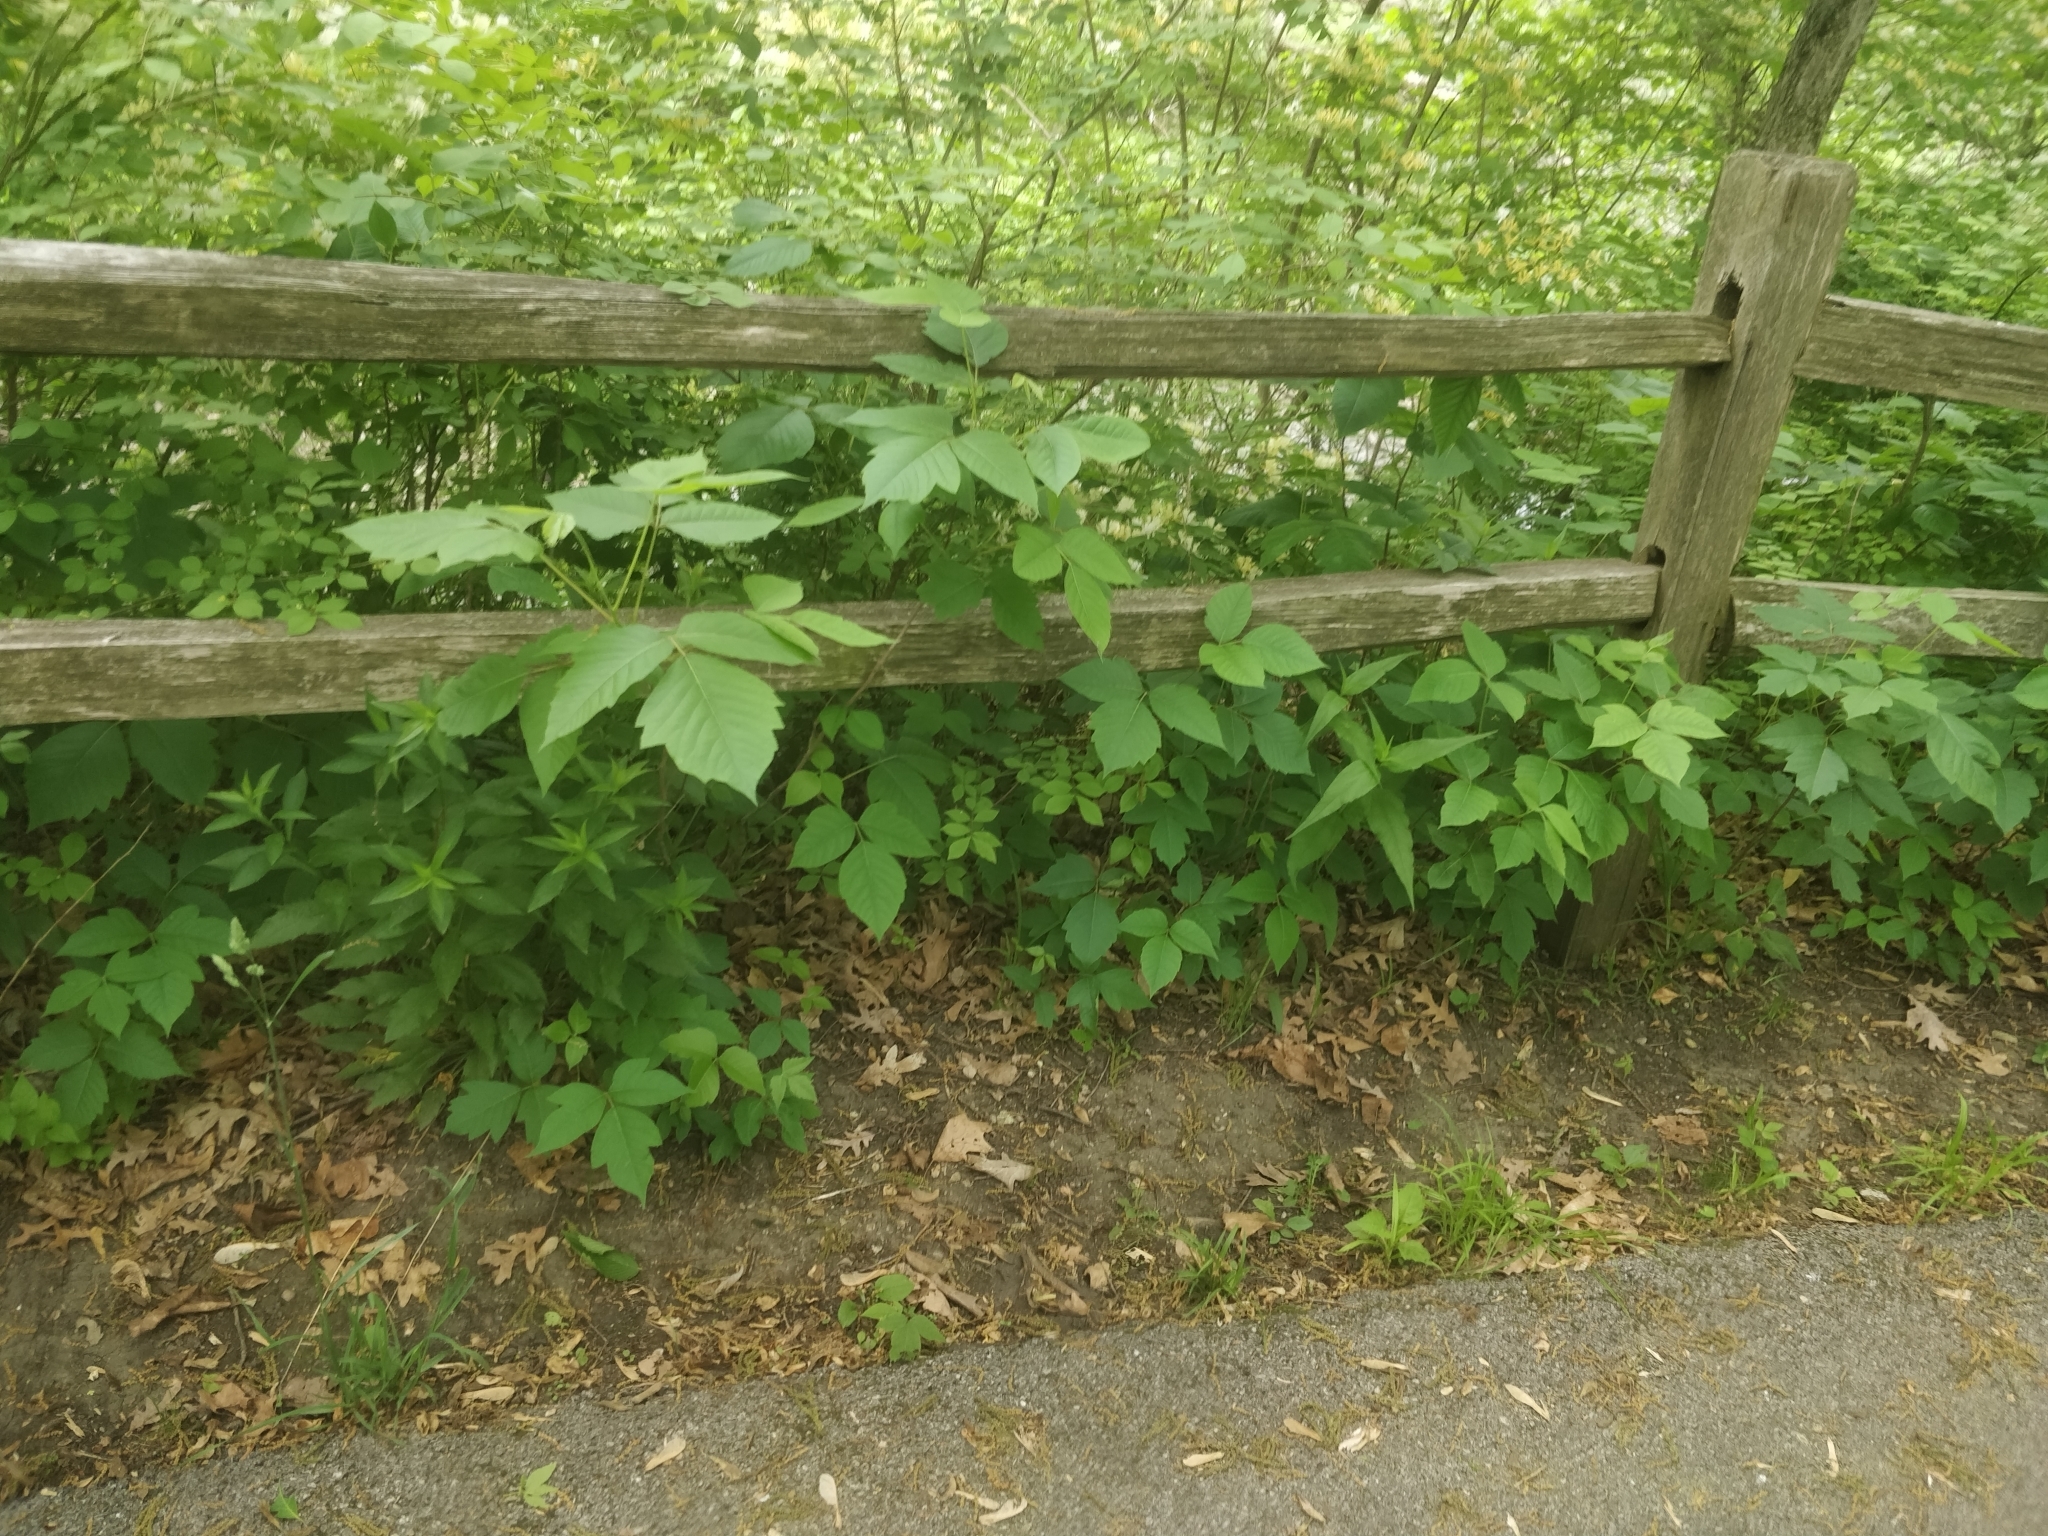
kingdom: Plantae
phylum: Tracheophyta
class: Magnoliopsida
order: Sapindales
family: Anacardiaceae
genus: Toxicodendron
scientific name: Toxicodendron radicans
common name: Poison ivy
